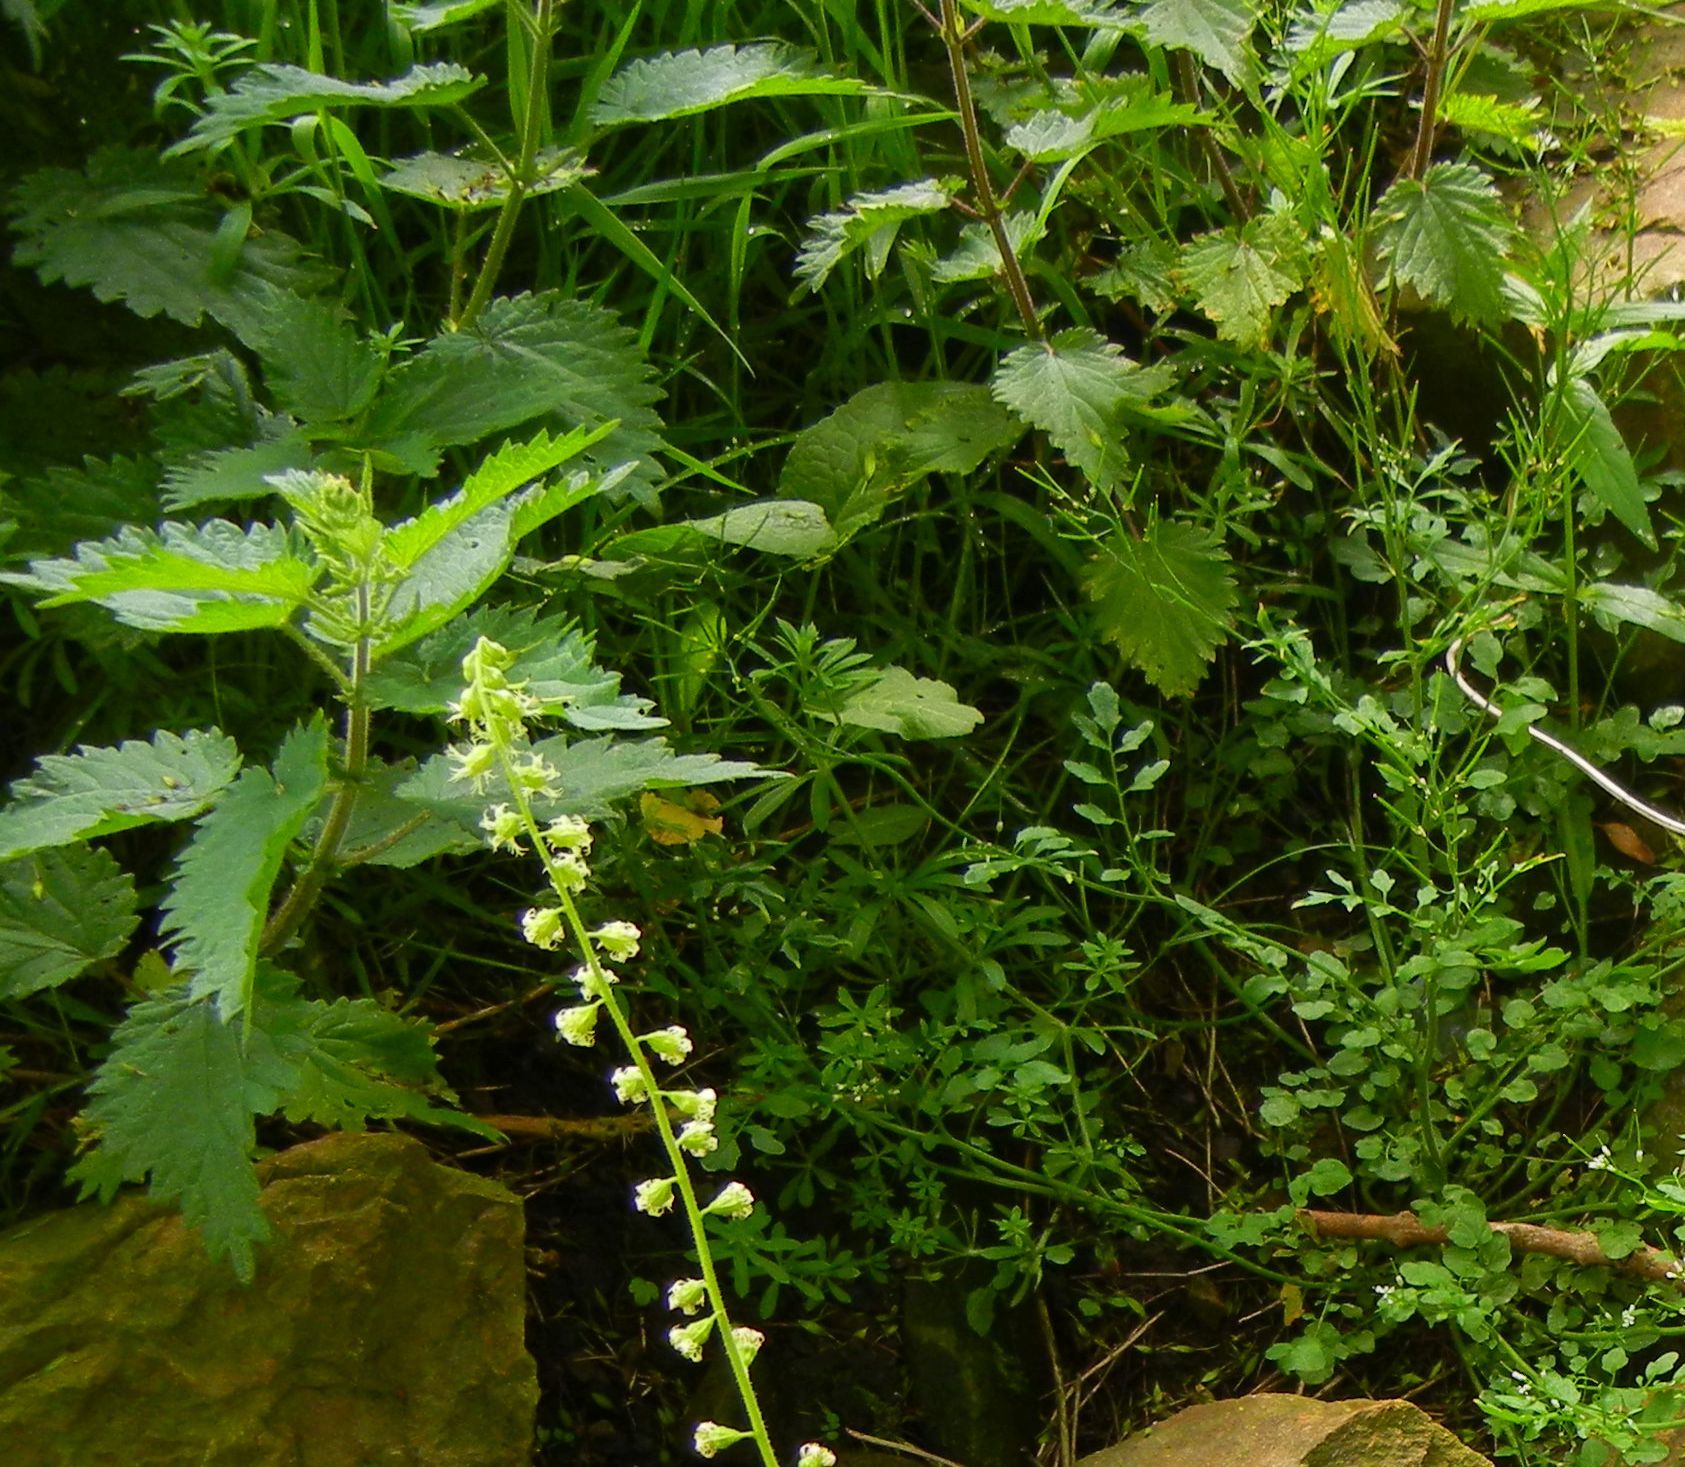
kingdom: Plantae
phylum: Tracheophyta
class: Magnoliopsida
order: Rosales
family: Urticaceae
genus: Urtica
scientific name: Urtica dioica
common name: Common nettle
